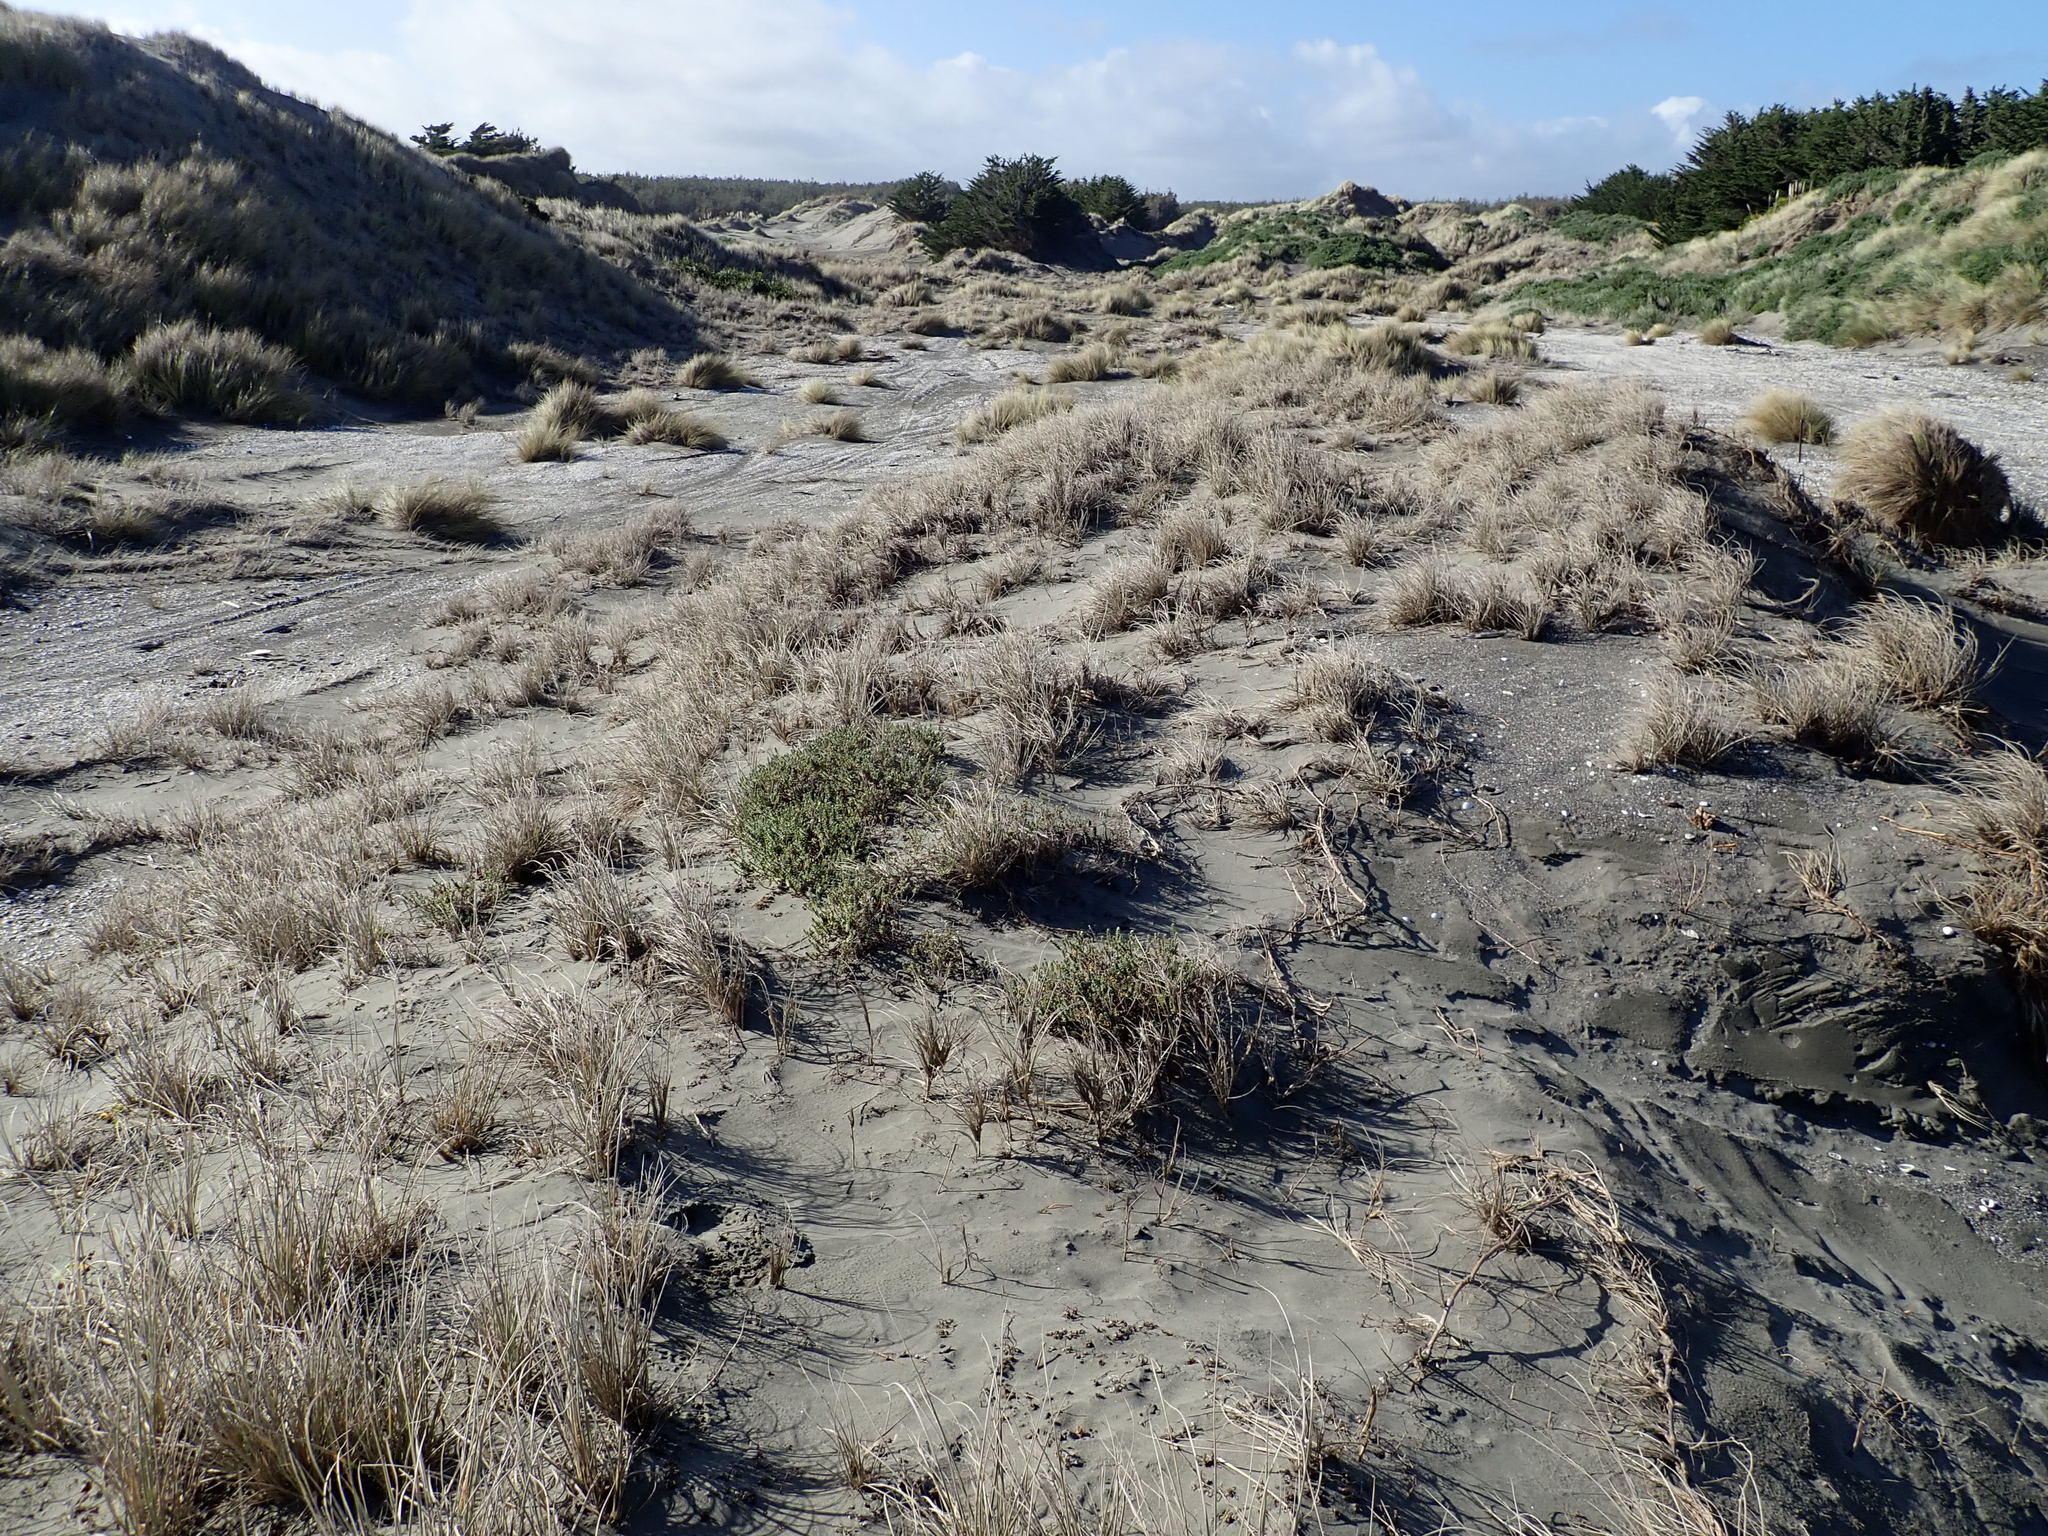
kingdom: Plantae
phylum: Tracheophyta
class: Magnoliopsida
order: Malvales
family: Thymelaeaceae
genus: Pimelea
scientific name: Pimelea villosa
